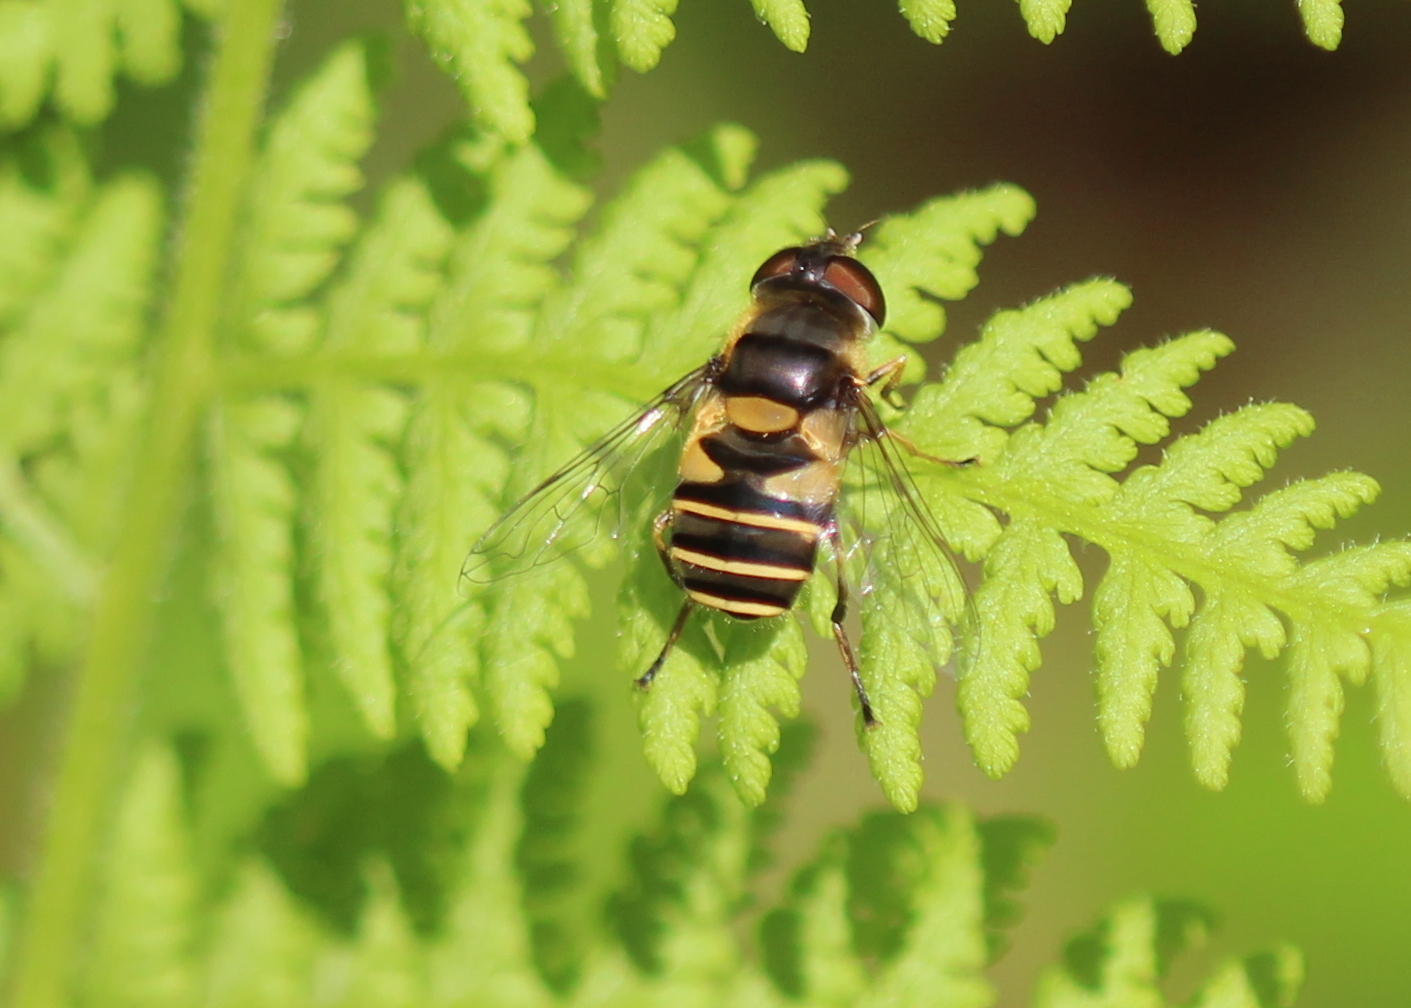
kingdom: Animalia
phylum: Arthropoda
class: Insecta
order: Diptera
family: Syrphidae
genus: Eristalis
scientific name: Eristalis transversa
